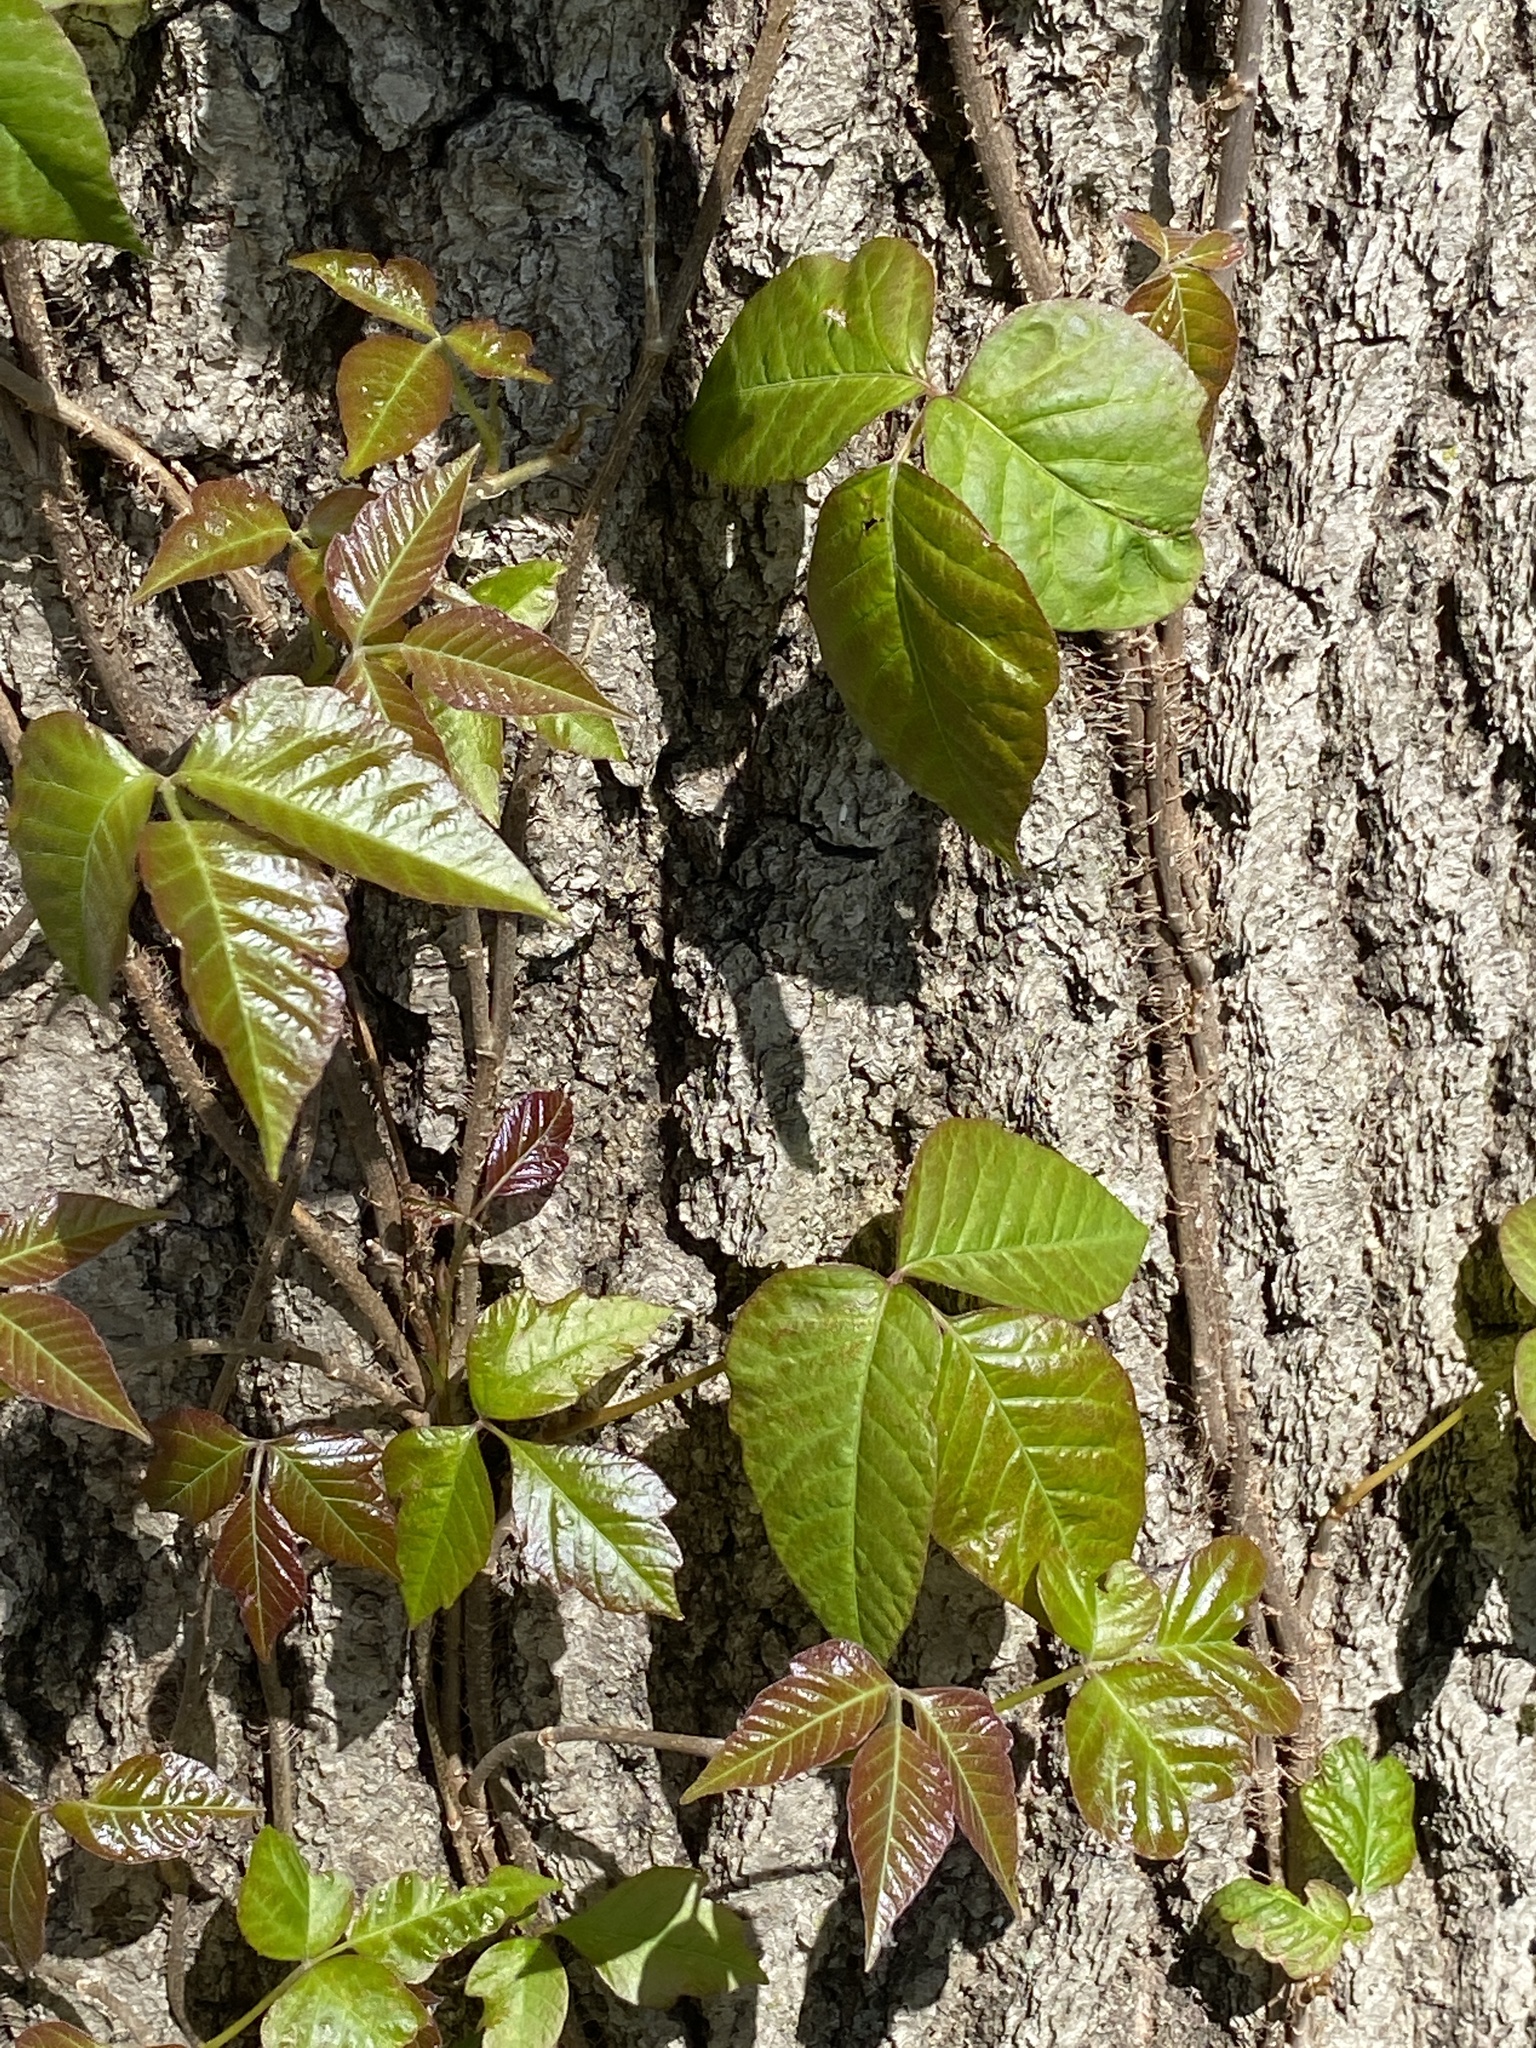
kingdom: Plantae
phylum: Tracheophyta
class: Magnoliopsida
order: Sapindales
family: Anacardiaceae
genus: Toxicodendron
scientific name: Toxicodendron radicans
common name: Poison ivy
